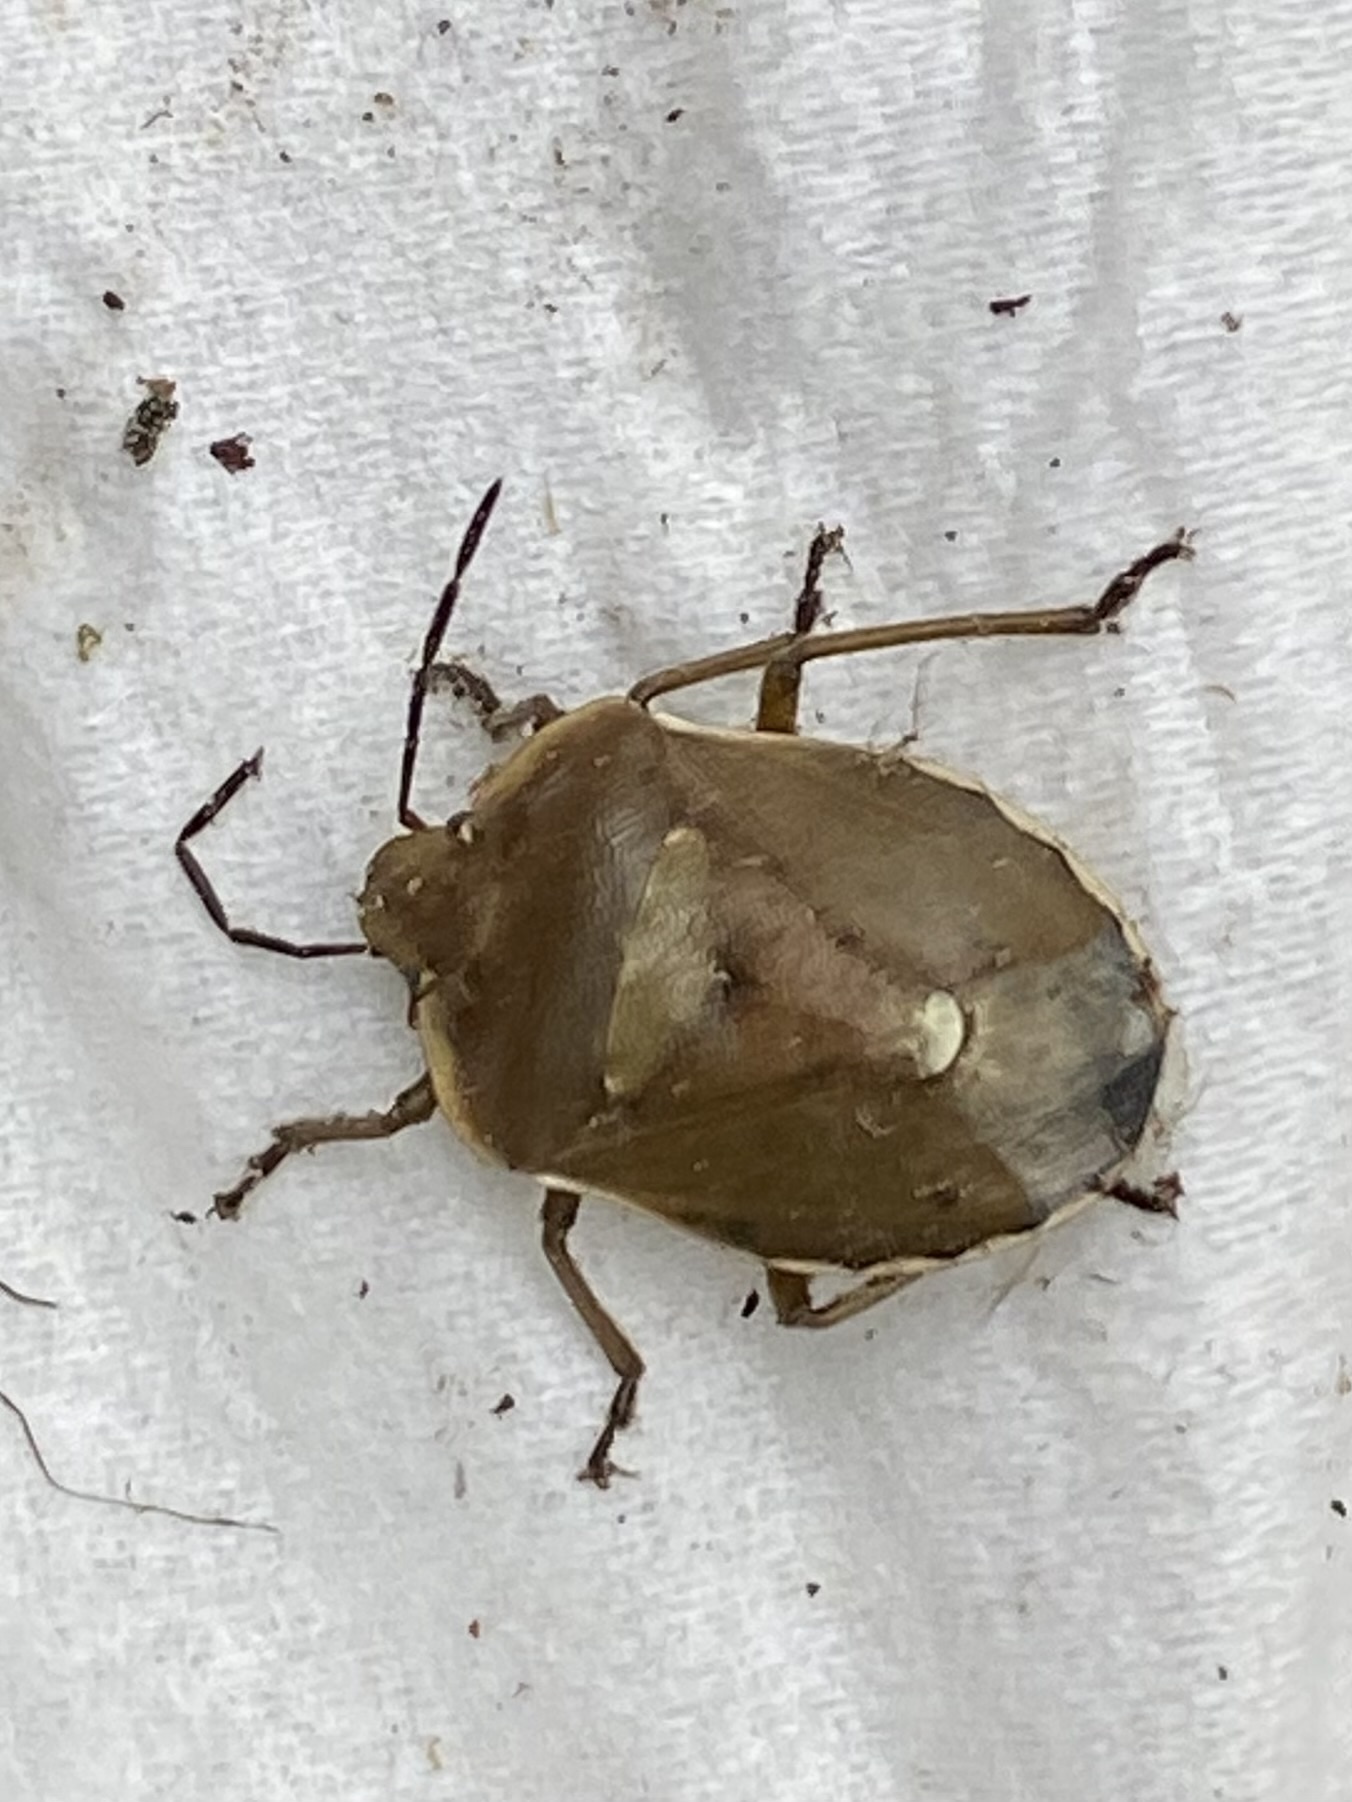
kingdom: Animalia
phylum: Arthropoda
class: Insecta
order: Hemiptera
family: Pentatomidae
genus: Chlorochroa
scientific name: Chlorochroa pinicola
